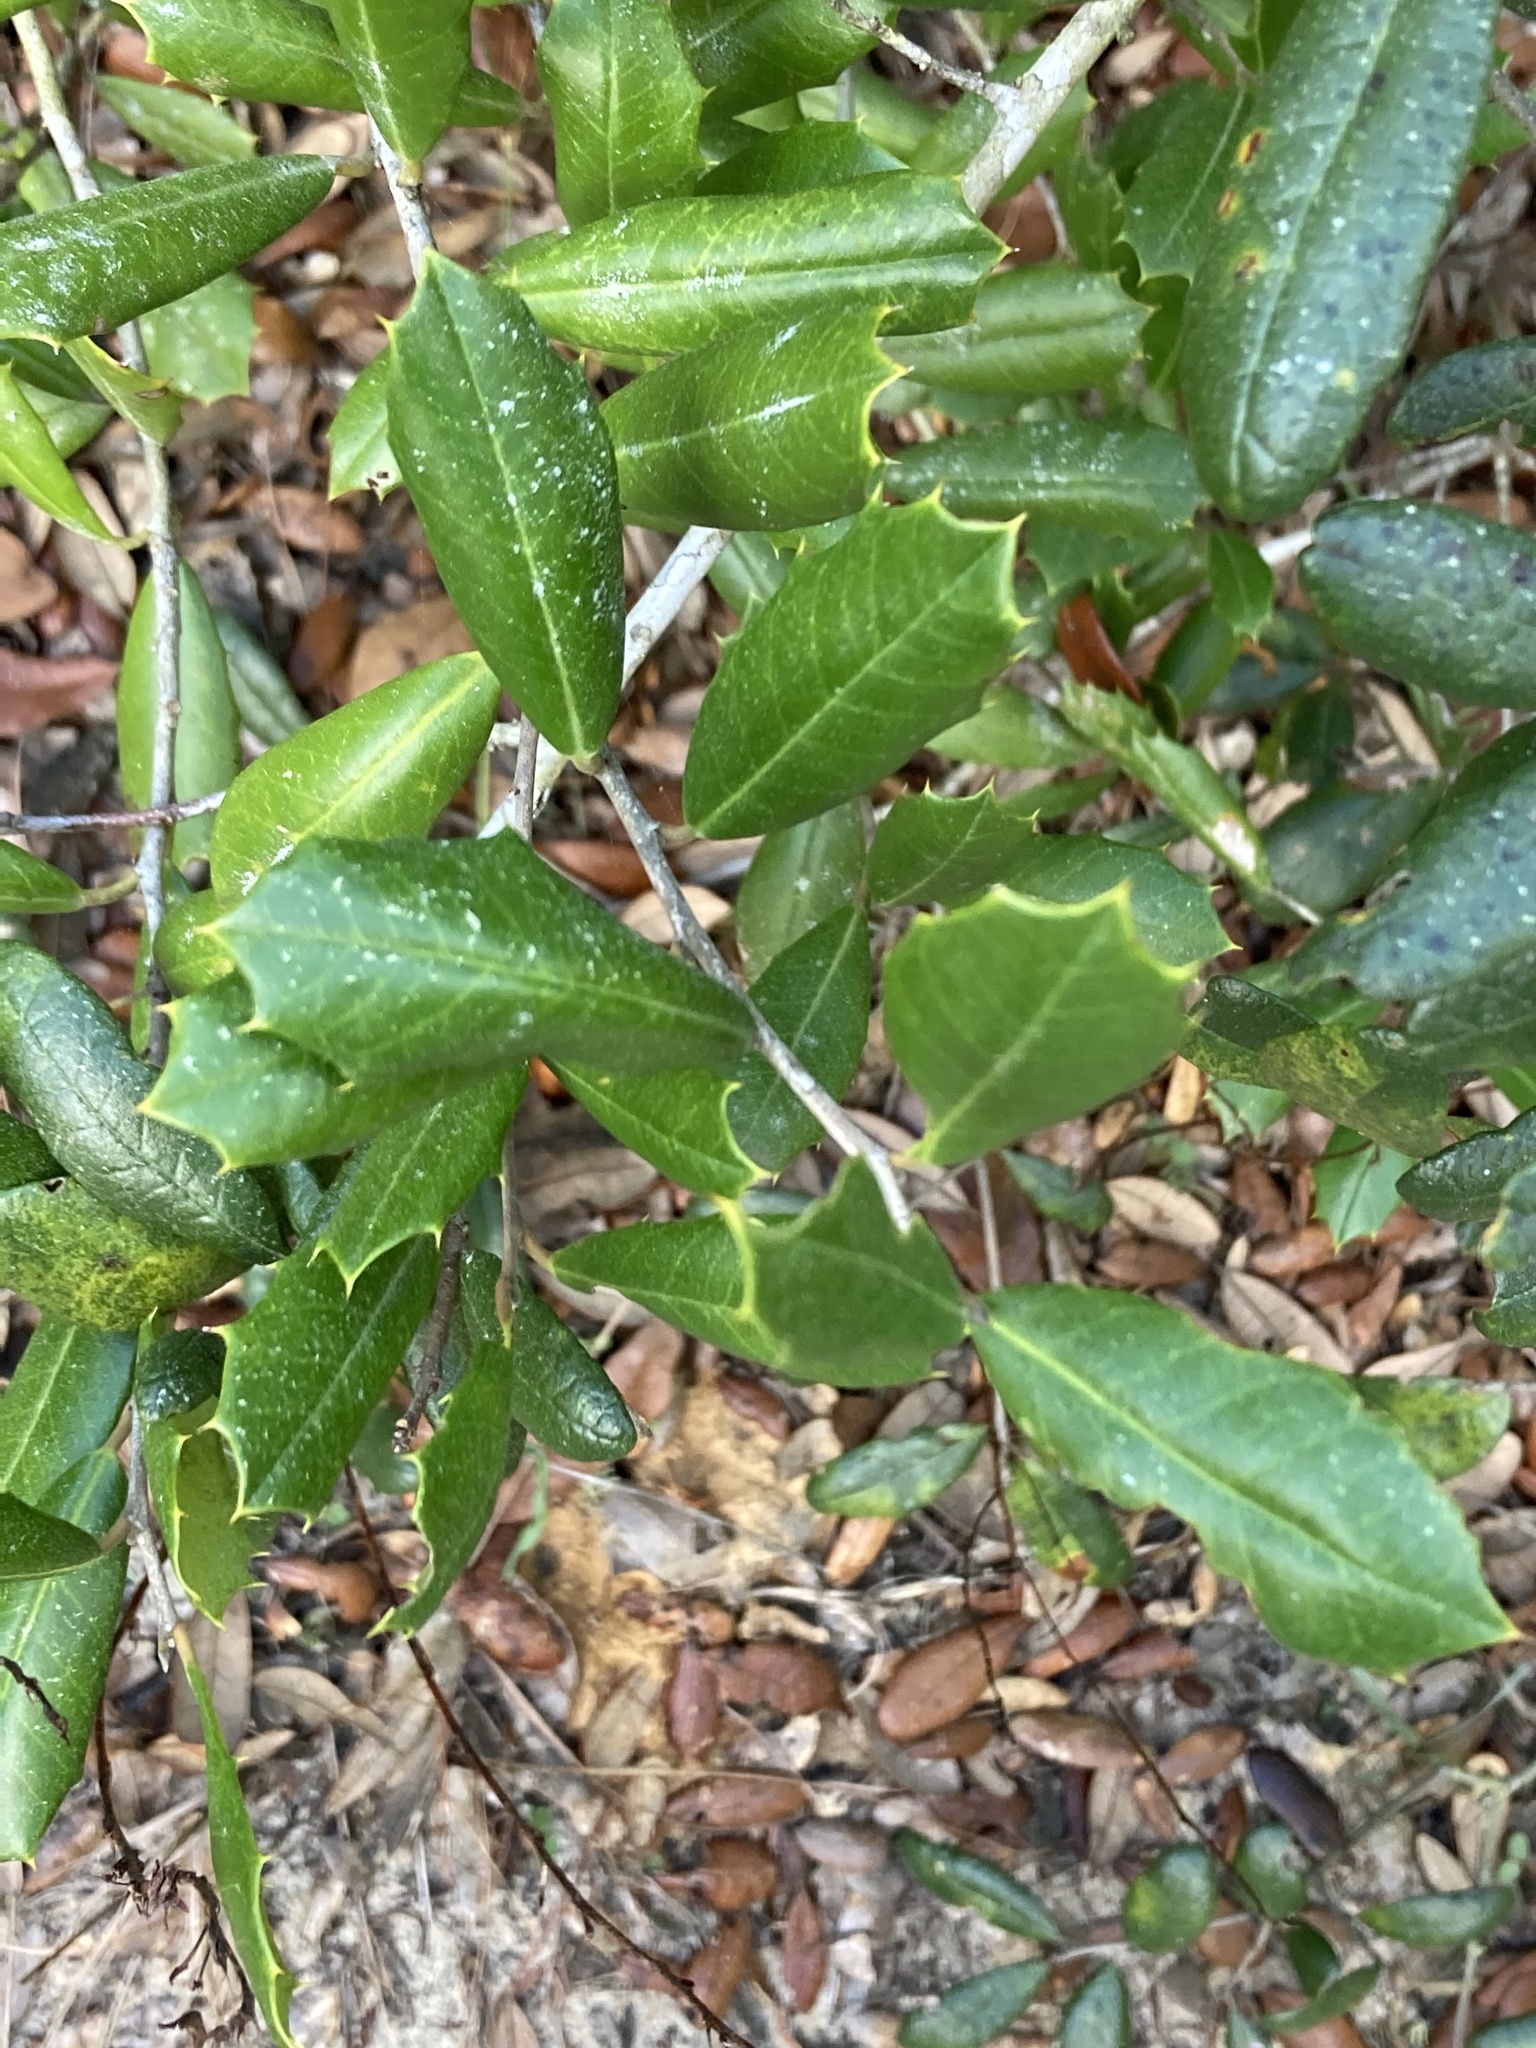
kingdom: Plantae
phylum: Tracheophyta
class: Magnoliopsida
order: Aquifoliales
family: Aquifoliaceae
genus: Ilex
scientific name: Ilex opaca
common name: American holly
